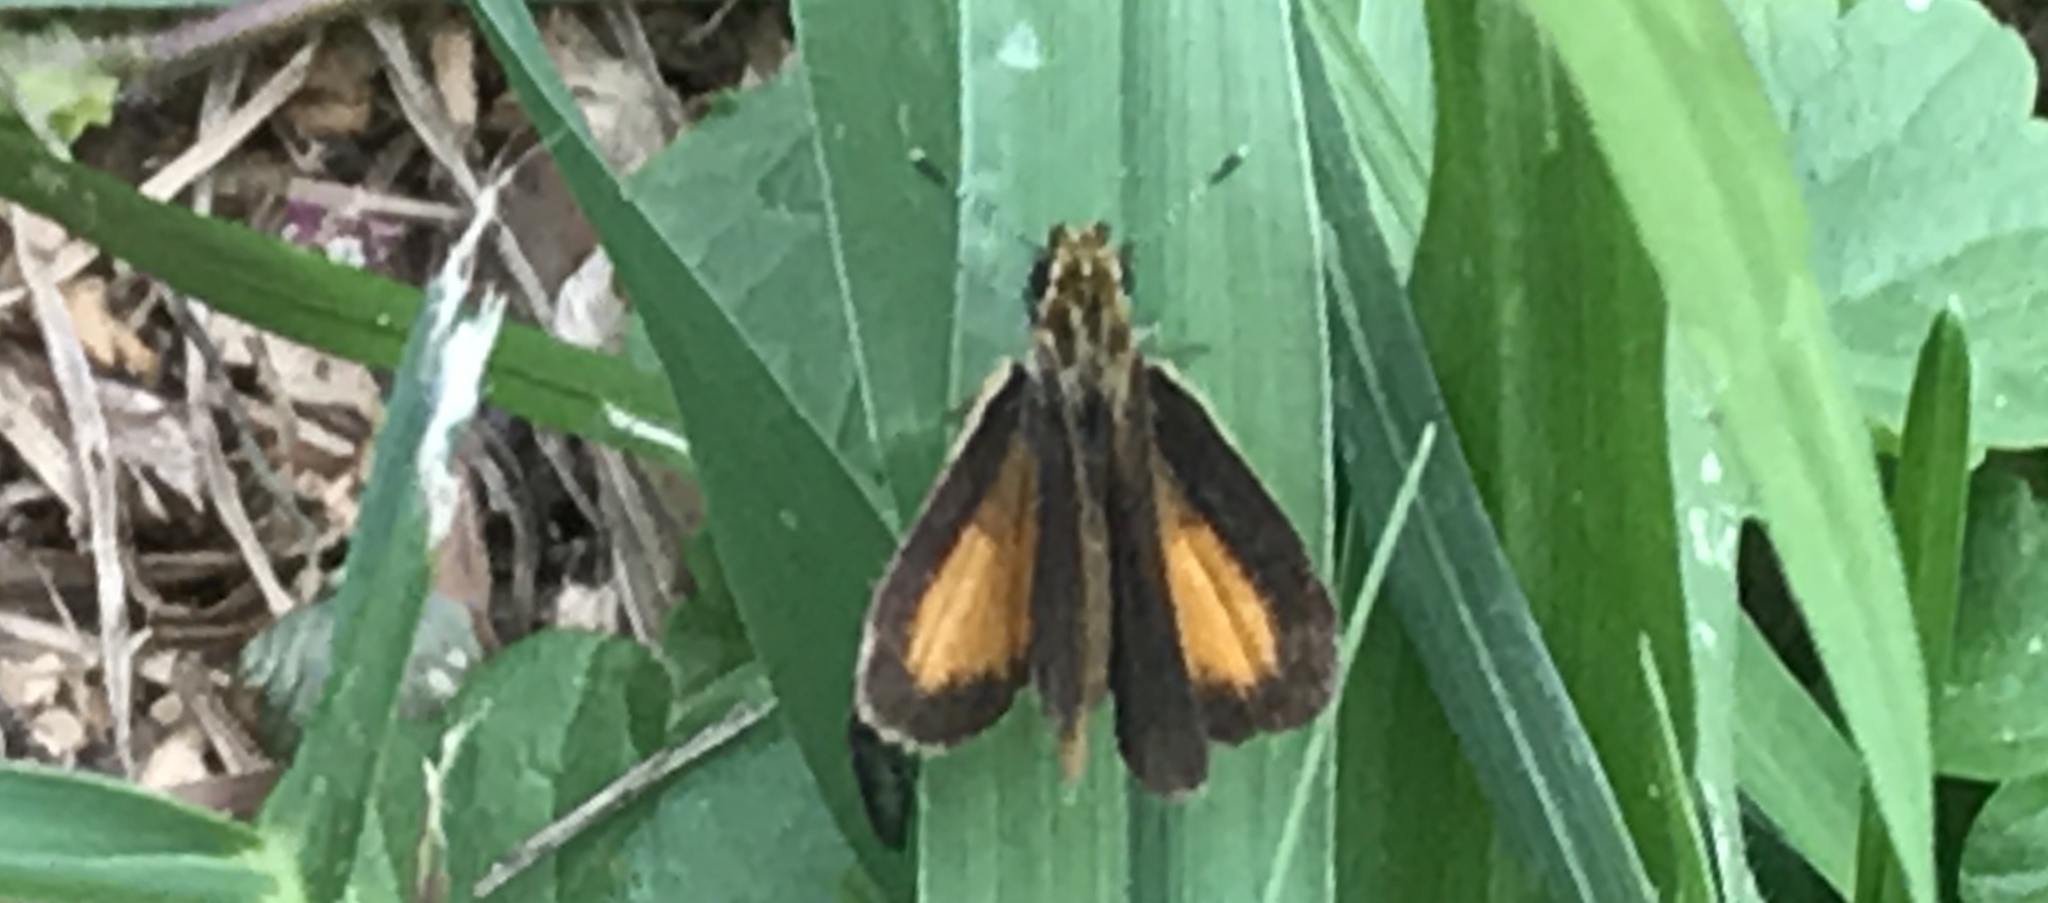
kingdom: Animalia
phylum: Arthropoda
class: Insecta
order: Lepidoptera
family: Hesperiidae
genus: Ancyloxypha
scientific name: Ancyloxypha numitor
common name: Least skipper
